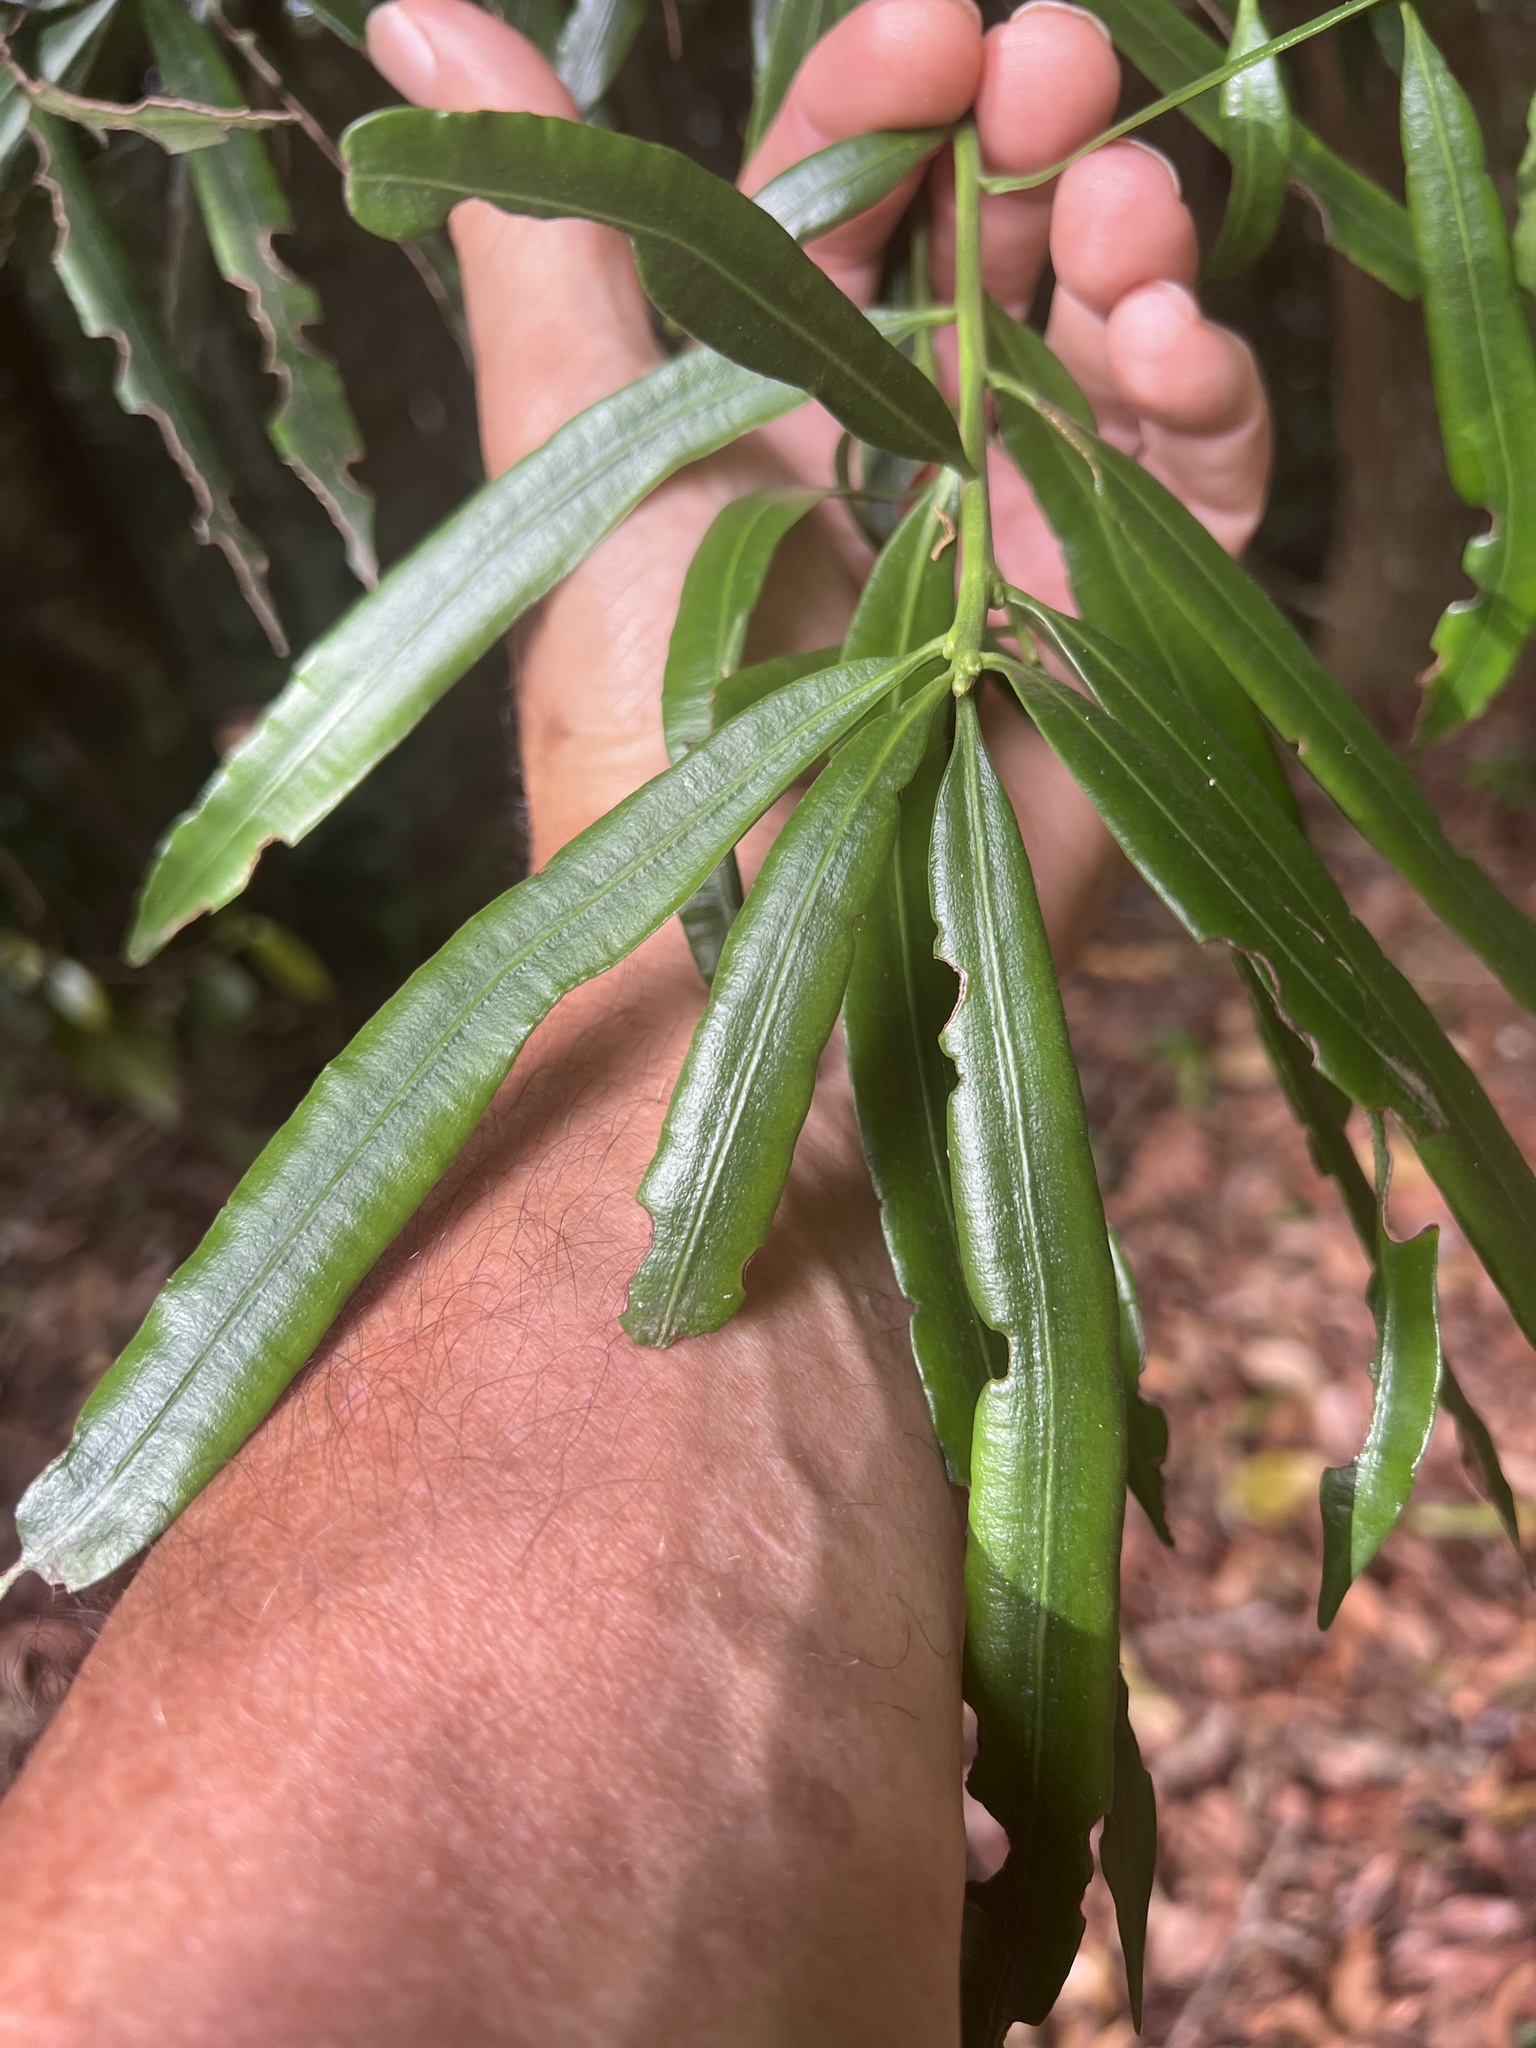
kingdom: Plantae
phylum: Tracheophyta
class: Pinopsida
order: Pinales
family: Podocarpaceae
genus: Podocarpus
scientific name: Podocarpus smithii
